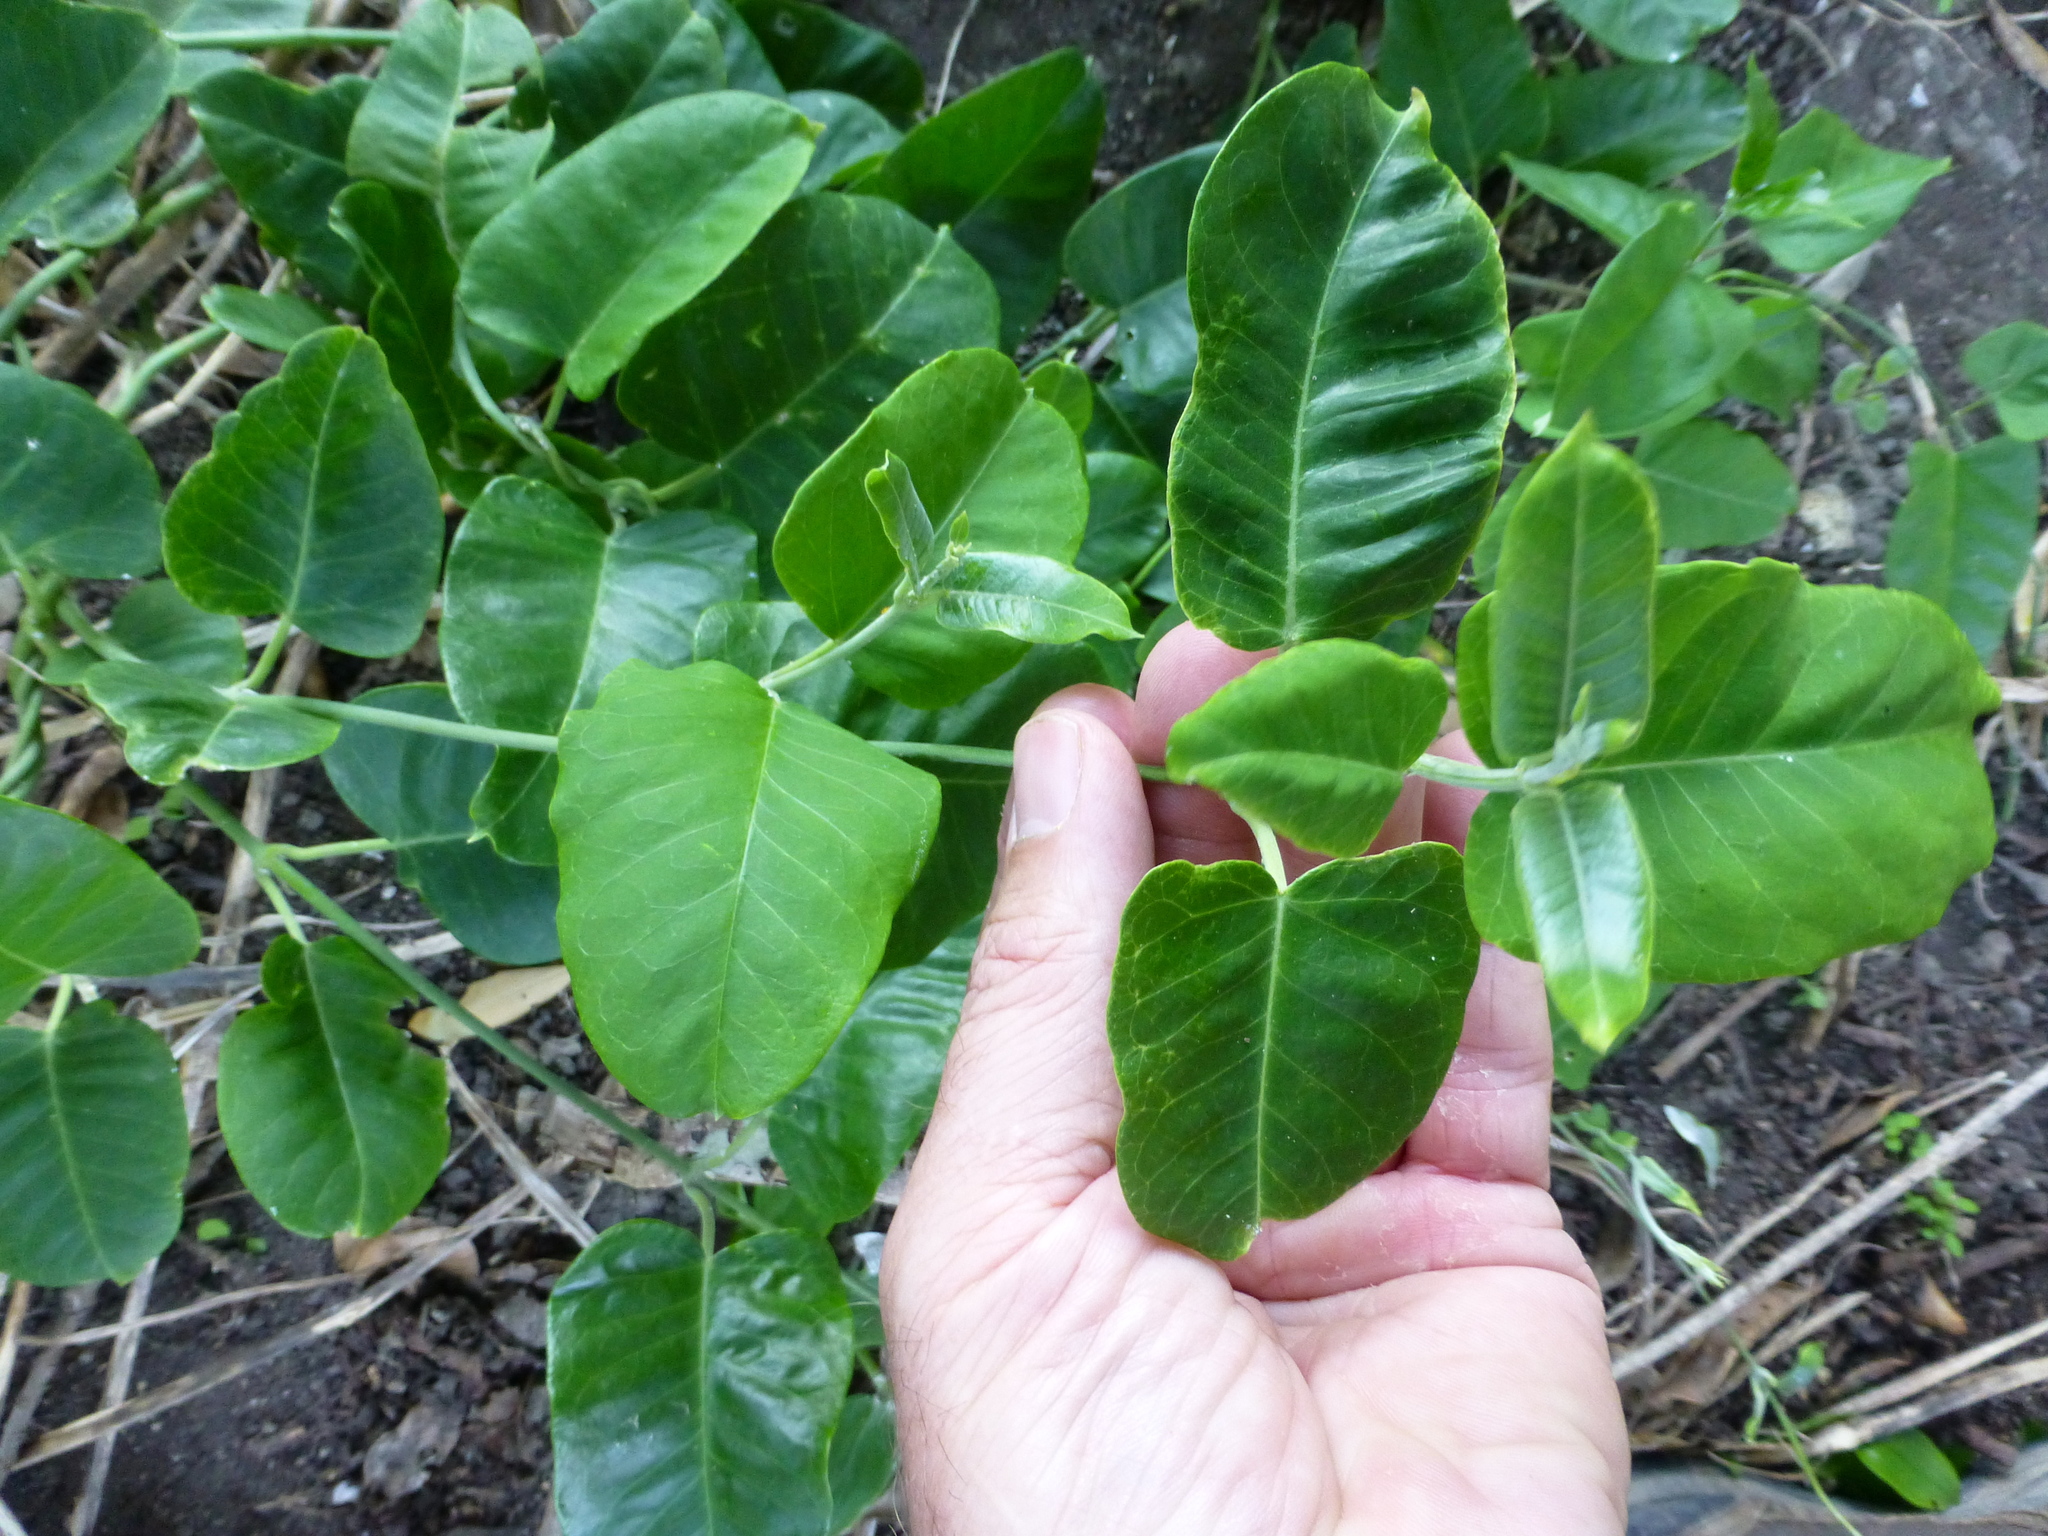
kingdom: Plantae
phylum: Tracheophyta
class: Magnoliopsida
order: Gentianales
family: Apocynaceae
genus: Araujia
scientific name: Araujia sericifera
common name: White bladderflower
